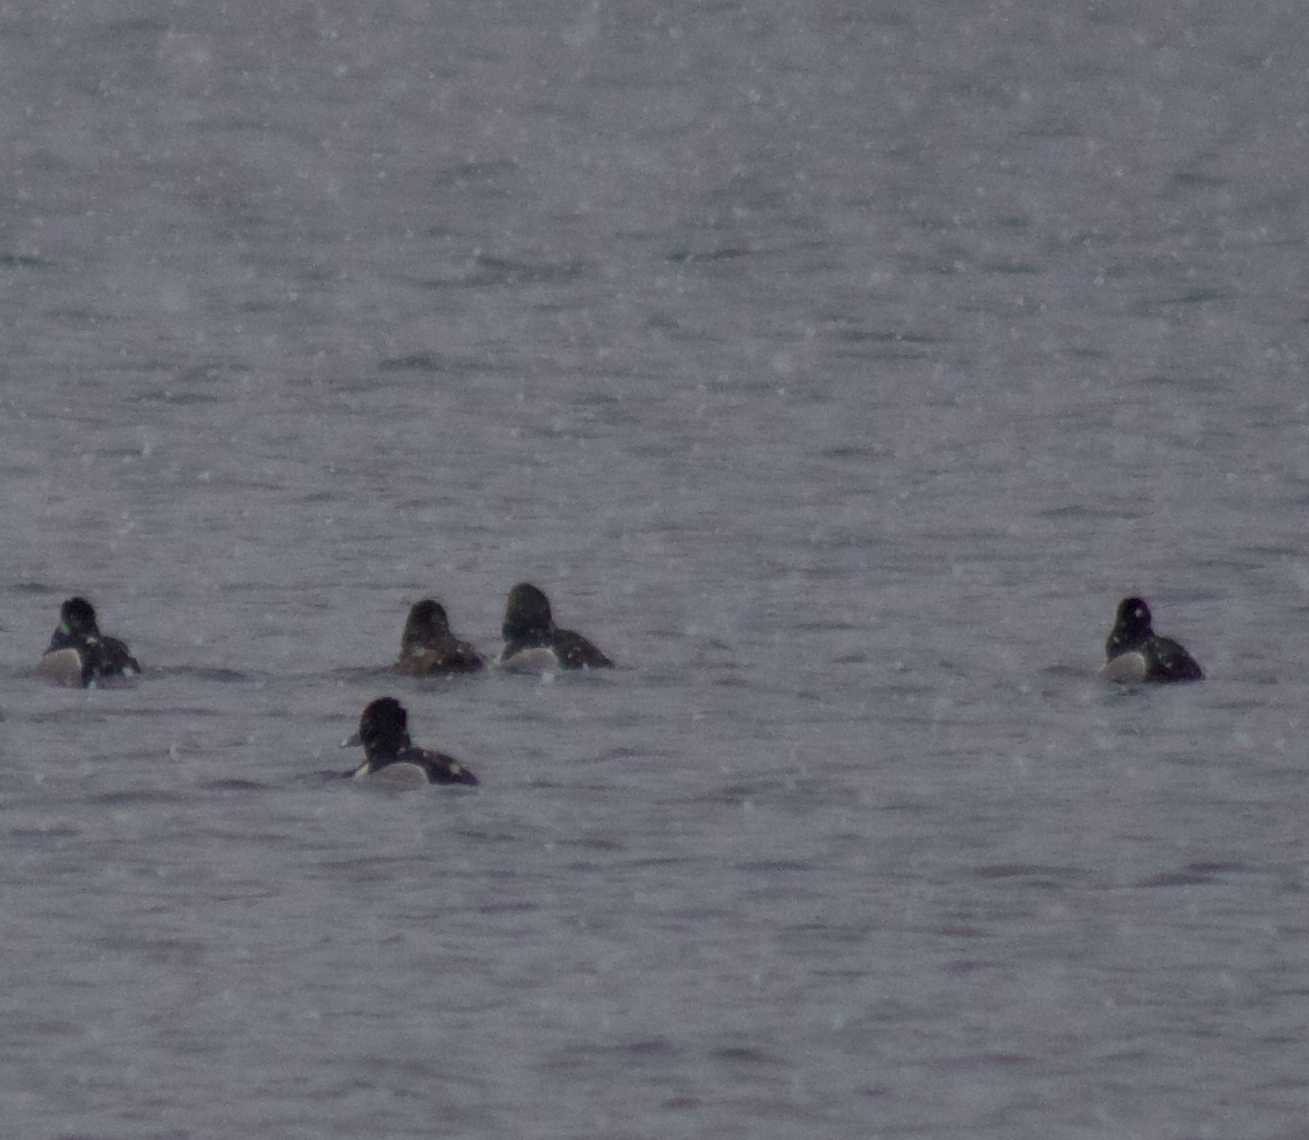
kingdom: Animalia
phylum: Chordata
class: Aves
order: Anseriformes
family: Anatidae
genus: Aythya
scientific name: Aythya collaris
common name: Ring-necked duck
